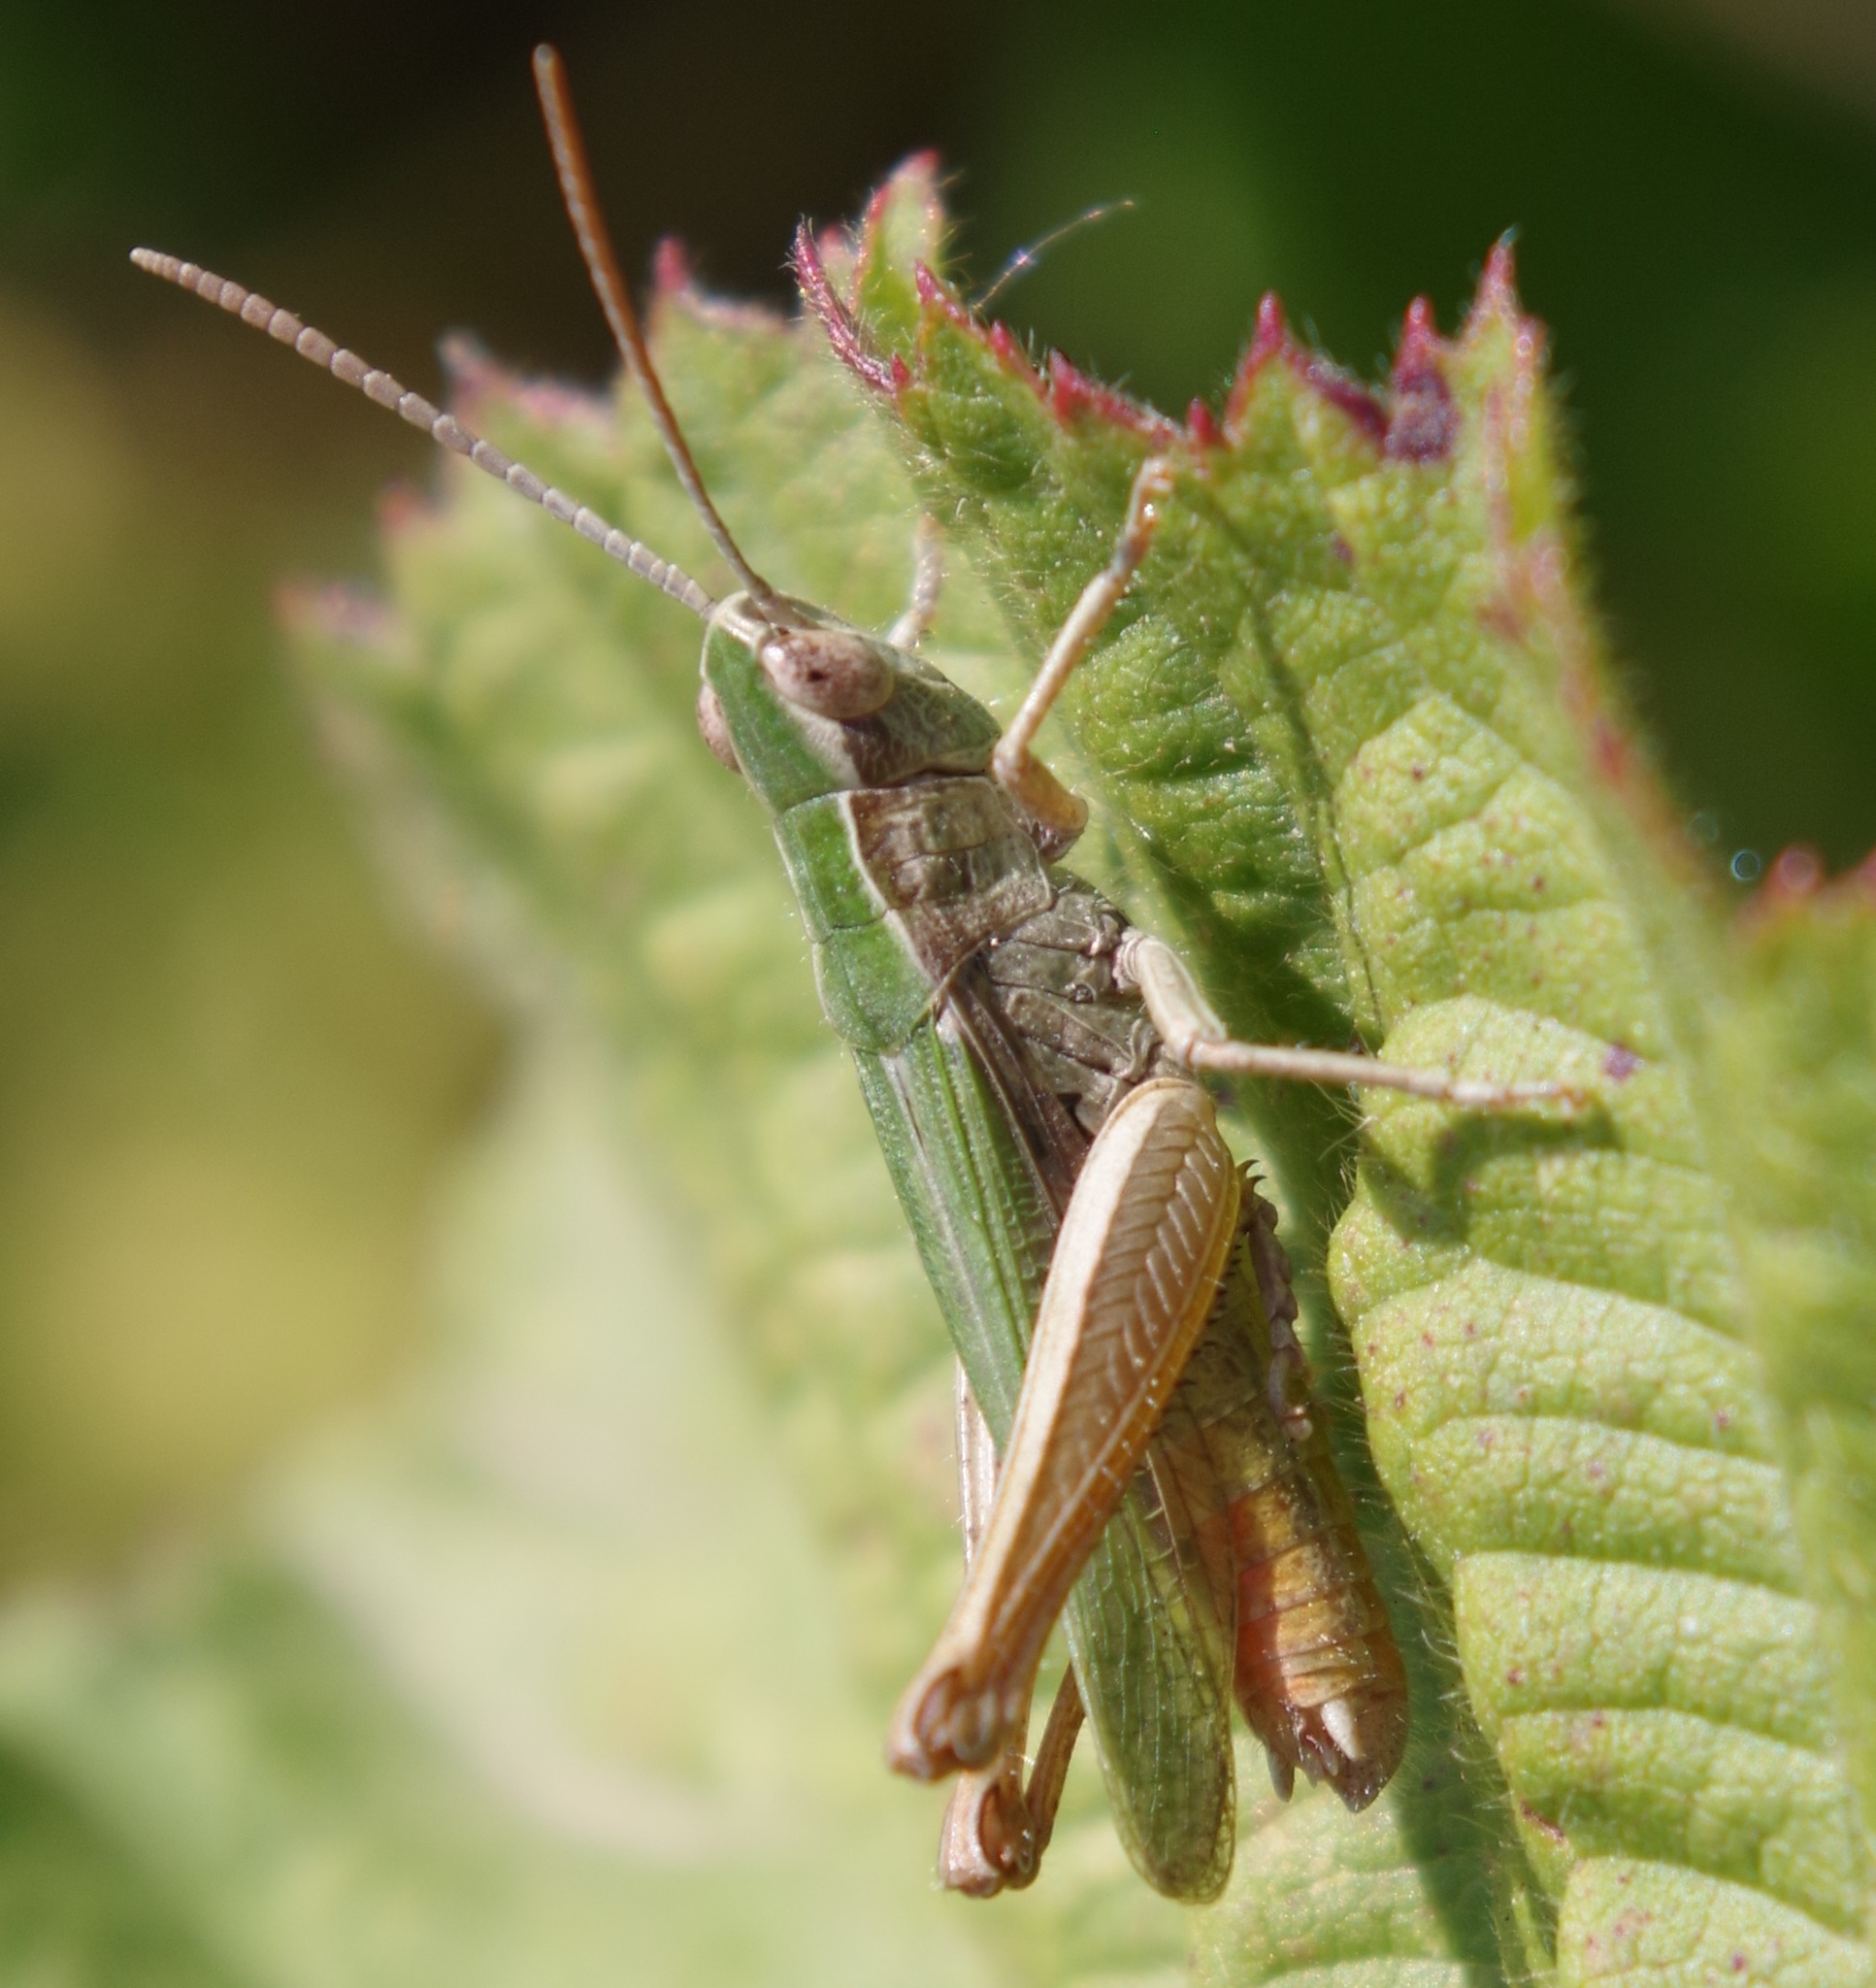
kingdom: Animalia
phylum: Arthropoda
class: Insecta
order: Orthoptera
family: Acrididae
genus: Chorthippus
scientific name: Chorthippus dorsatus
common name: Steppe grasshopper
